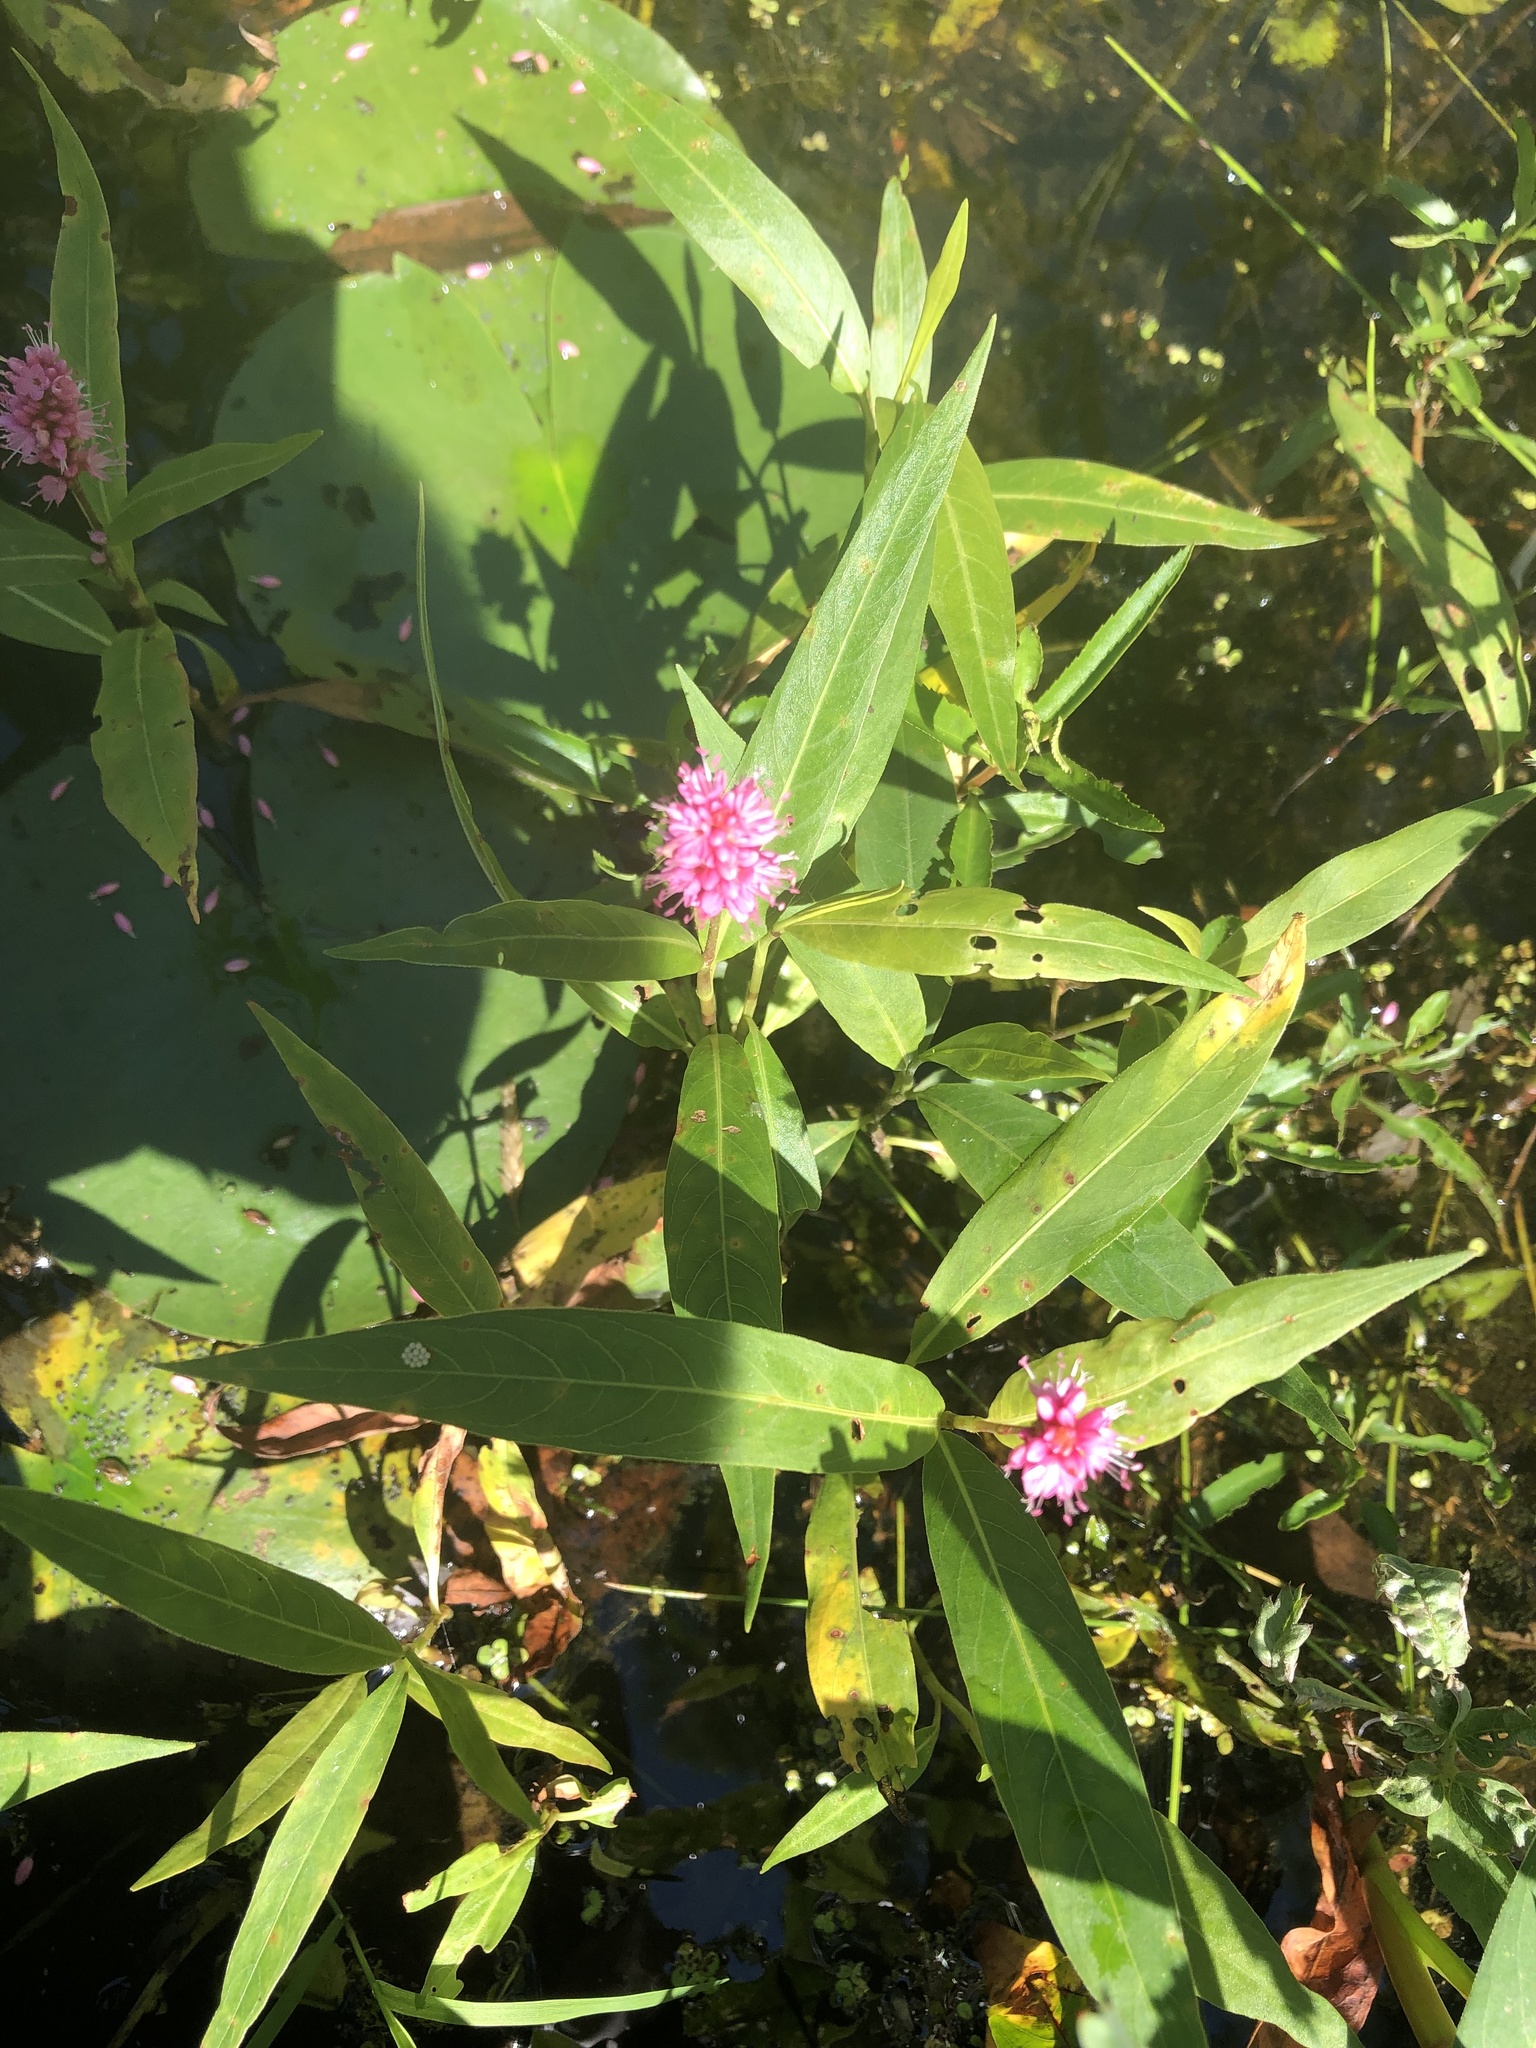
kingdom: Plantae
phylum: Tracheophyta
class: Magnoliopsida
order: Caryophyllales
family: Polygonaceae
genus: Persicaria
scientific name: Persicaria amphibia
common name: Amphibious bistort
